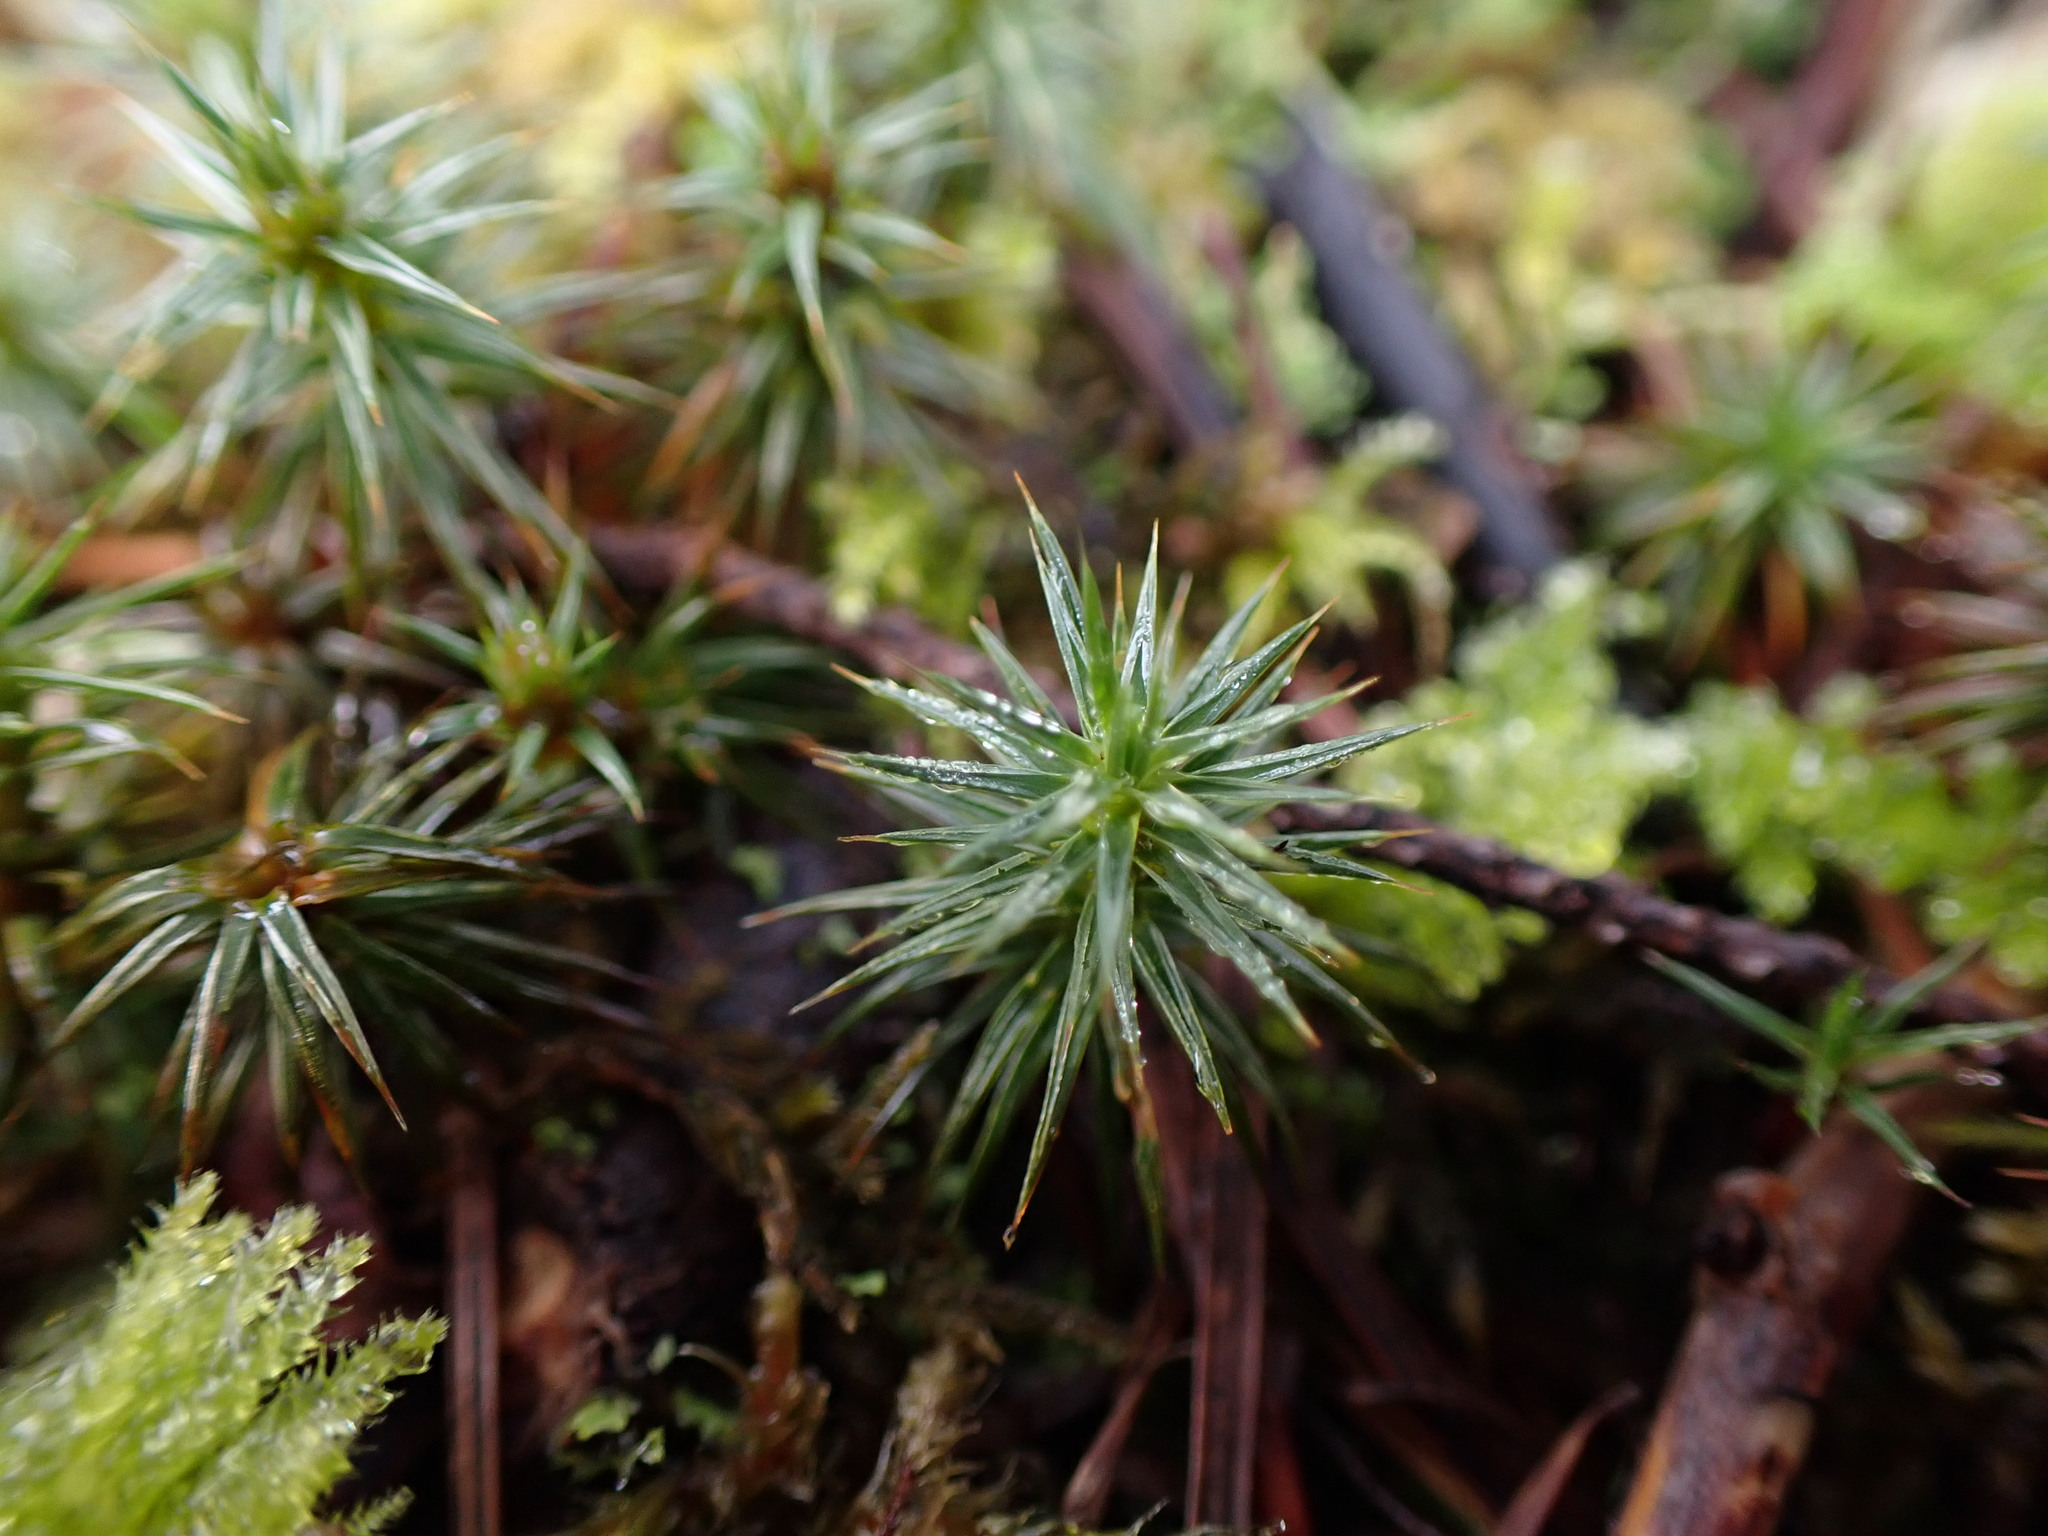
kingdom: Plantae
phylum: Bryophyta
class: Polytrichopsida
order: Polytrichales
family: Polytrichaceae
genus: Polytrichum
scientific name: Polytrichum juniperinum
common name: Juniper haircap moss
